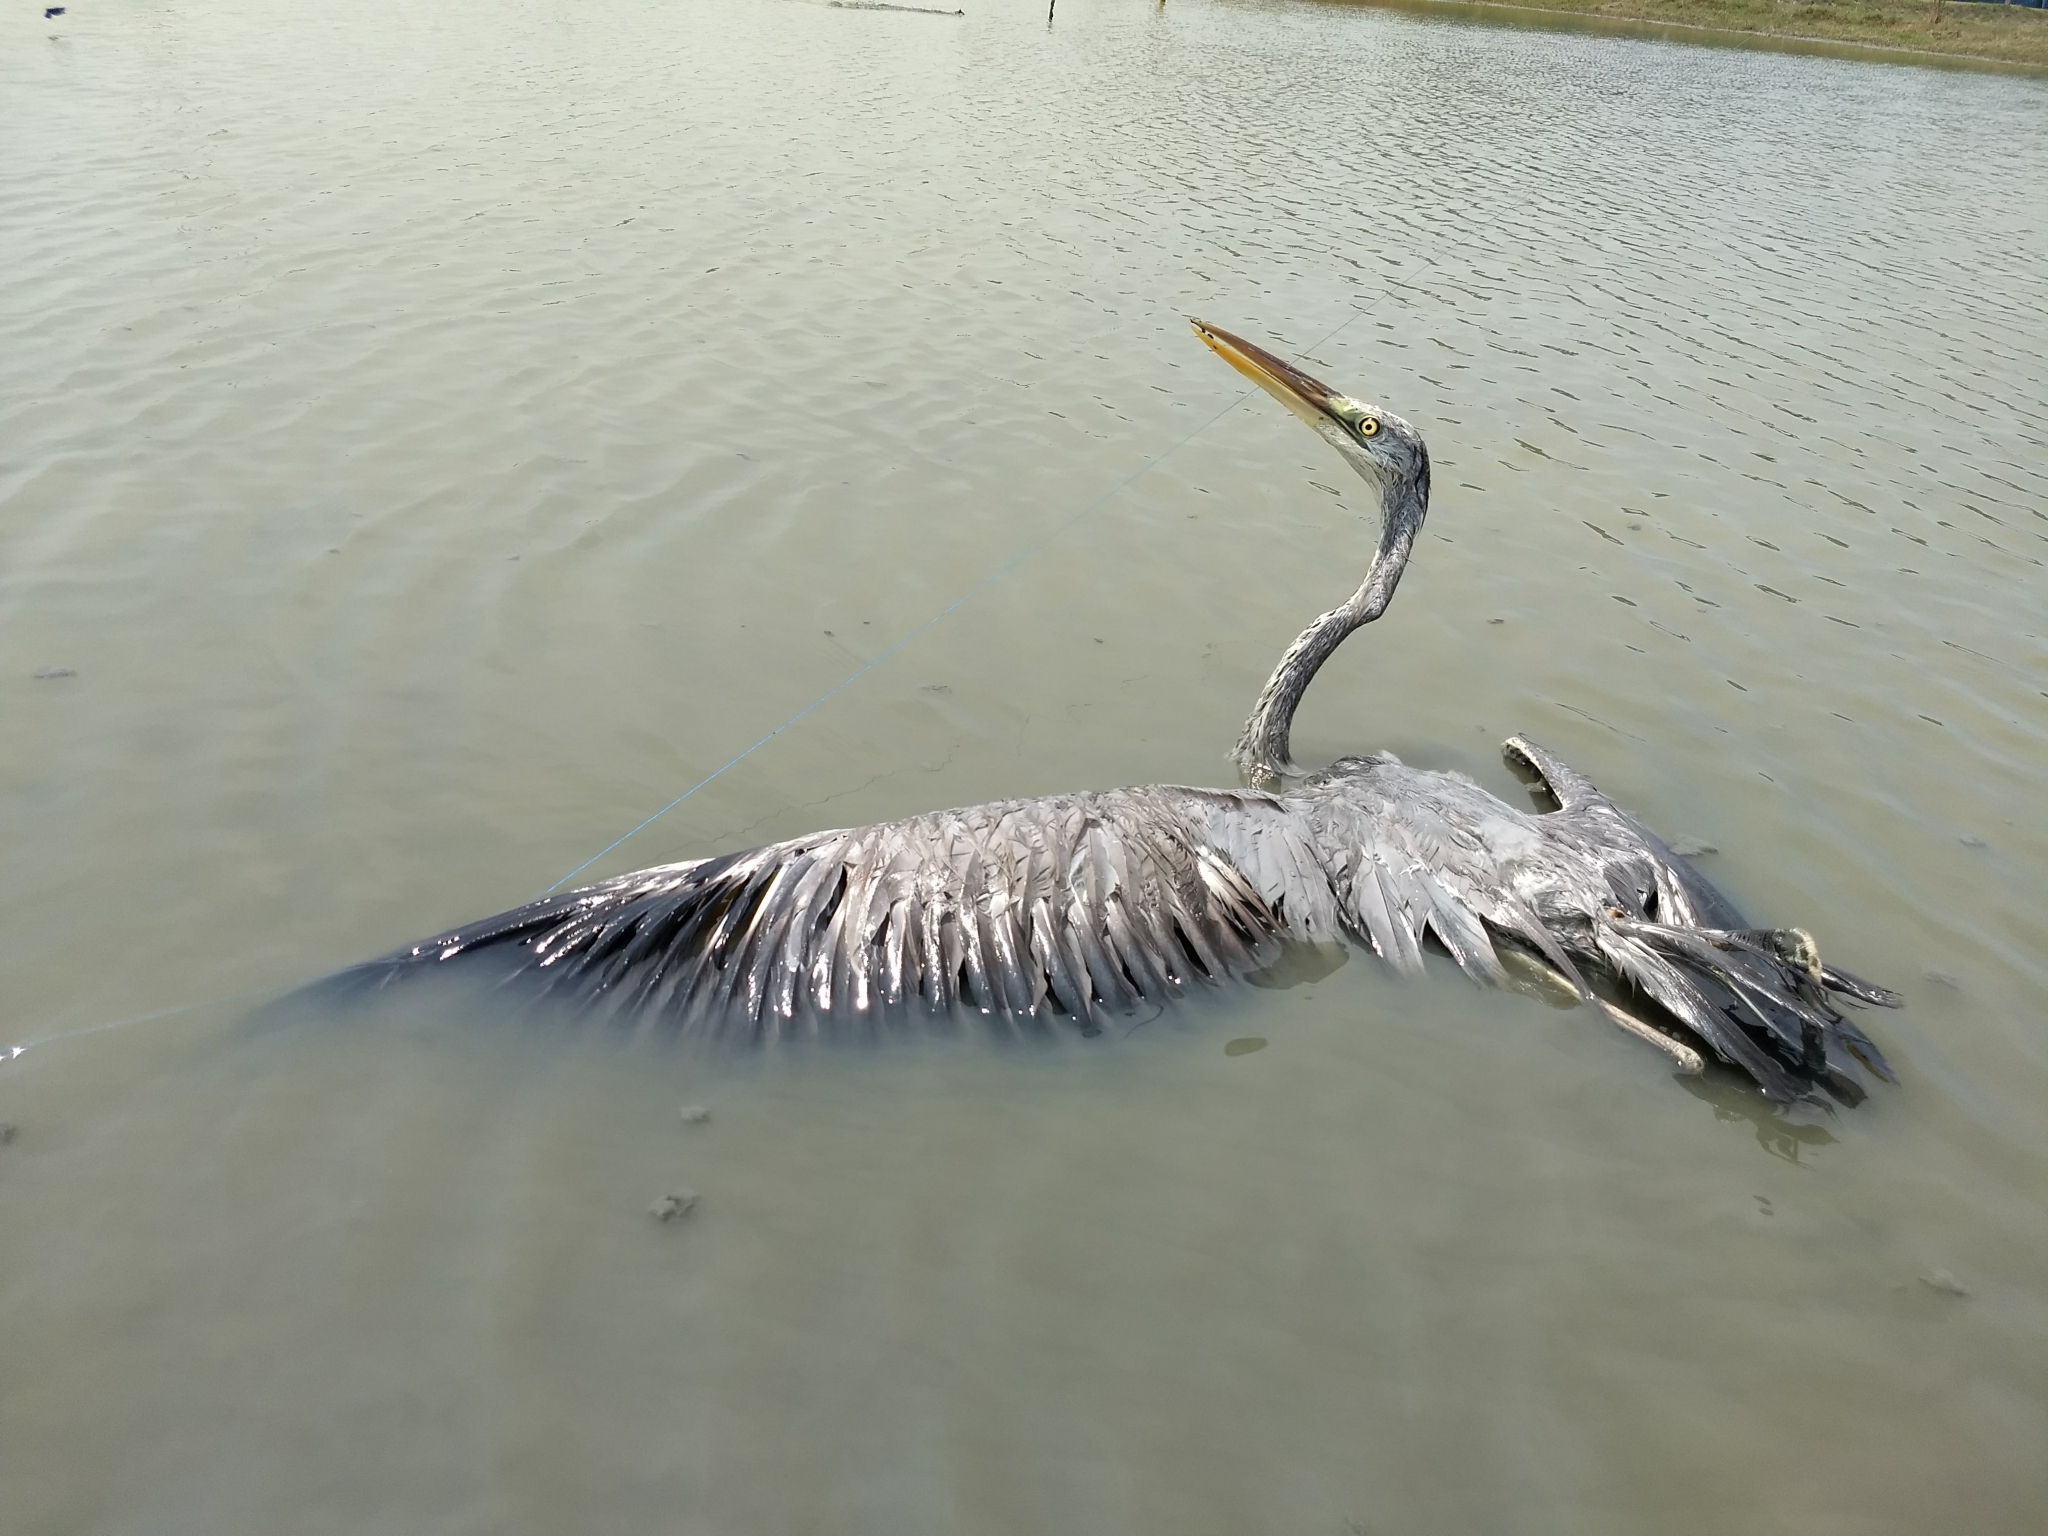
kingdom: Animalia
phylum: Chordata
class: Aves
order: Pelecaniformes
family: Ardeidae
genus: Ardea
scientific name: Ardea cinerea
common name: Grey heron
